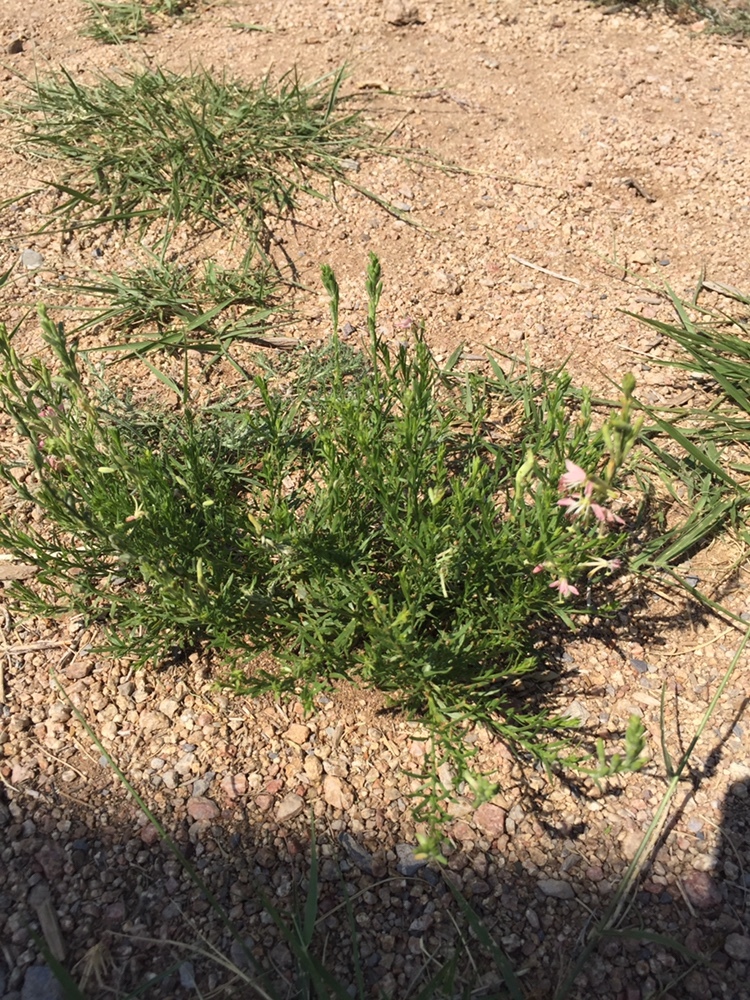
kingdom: Plantae
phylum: Tracheophyta
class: Magnoliopsida
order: Myrtales
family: Onagraceae
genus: Oenothera
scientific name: Oenothera suffrutescens
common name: Scarlet beeblossom
